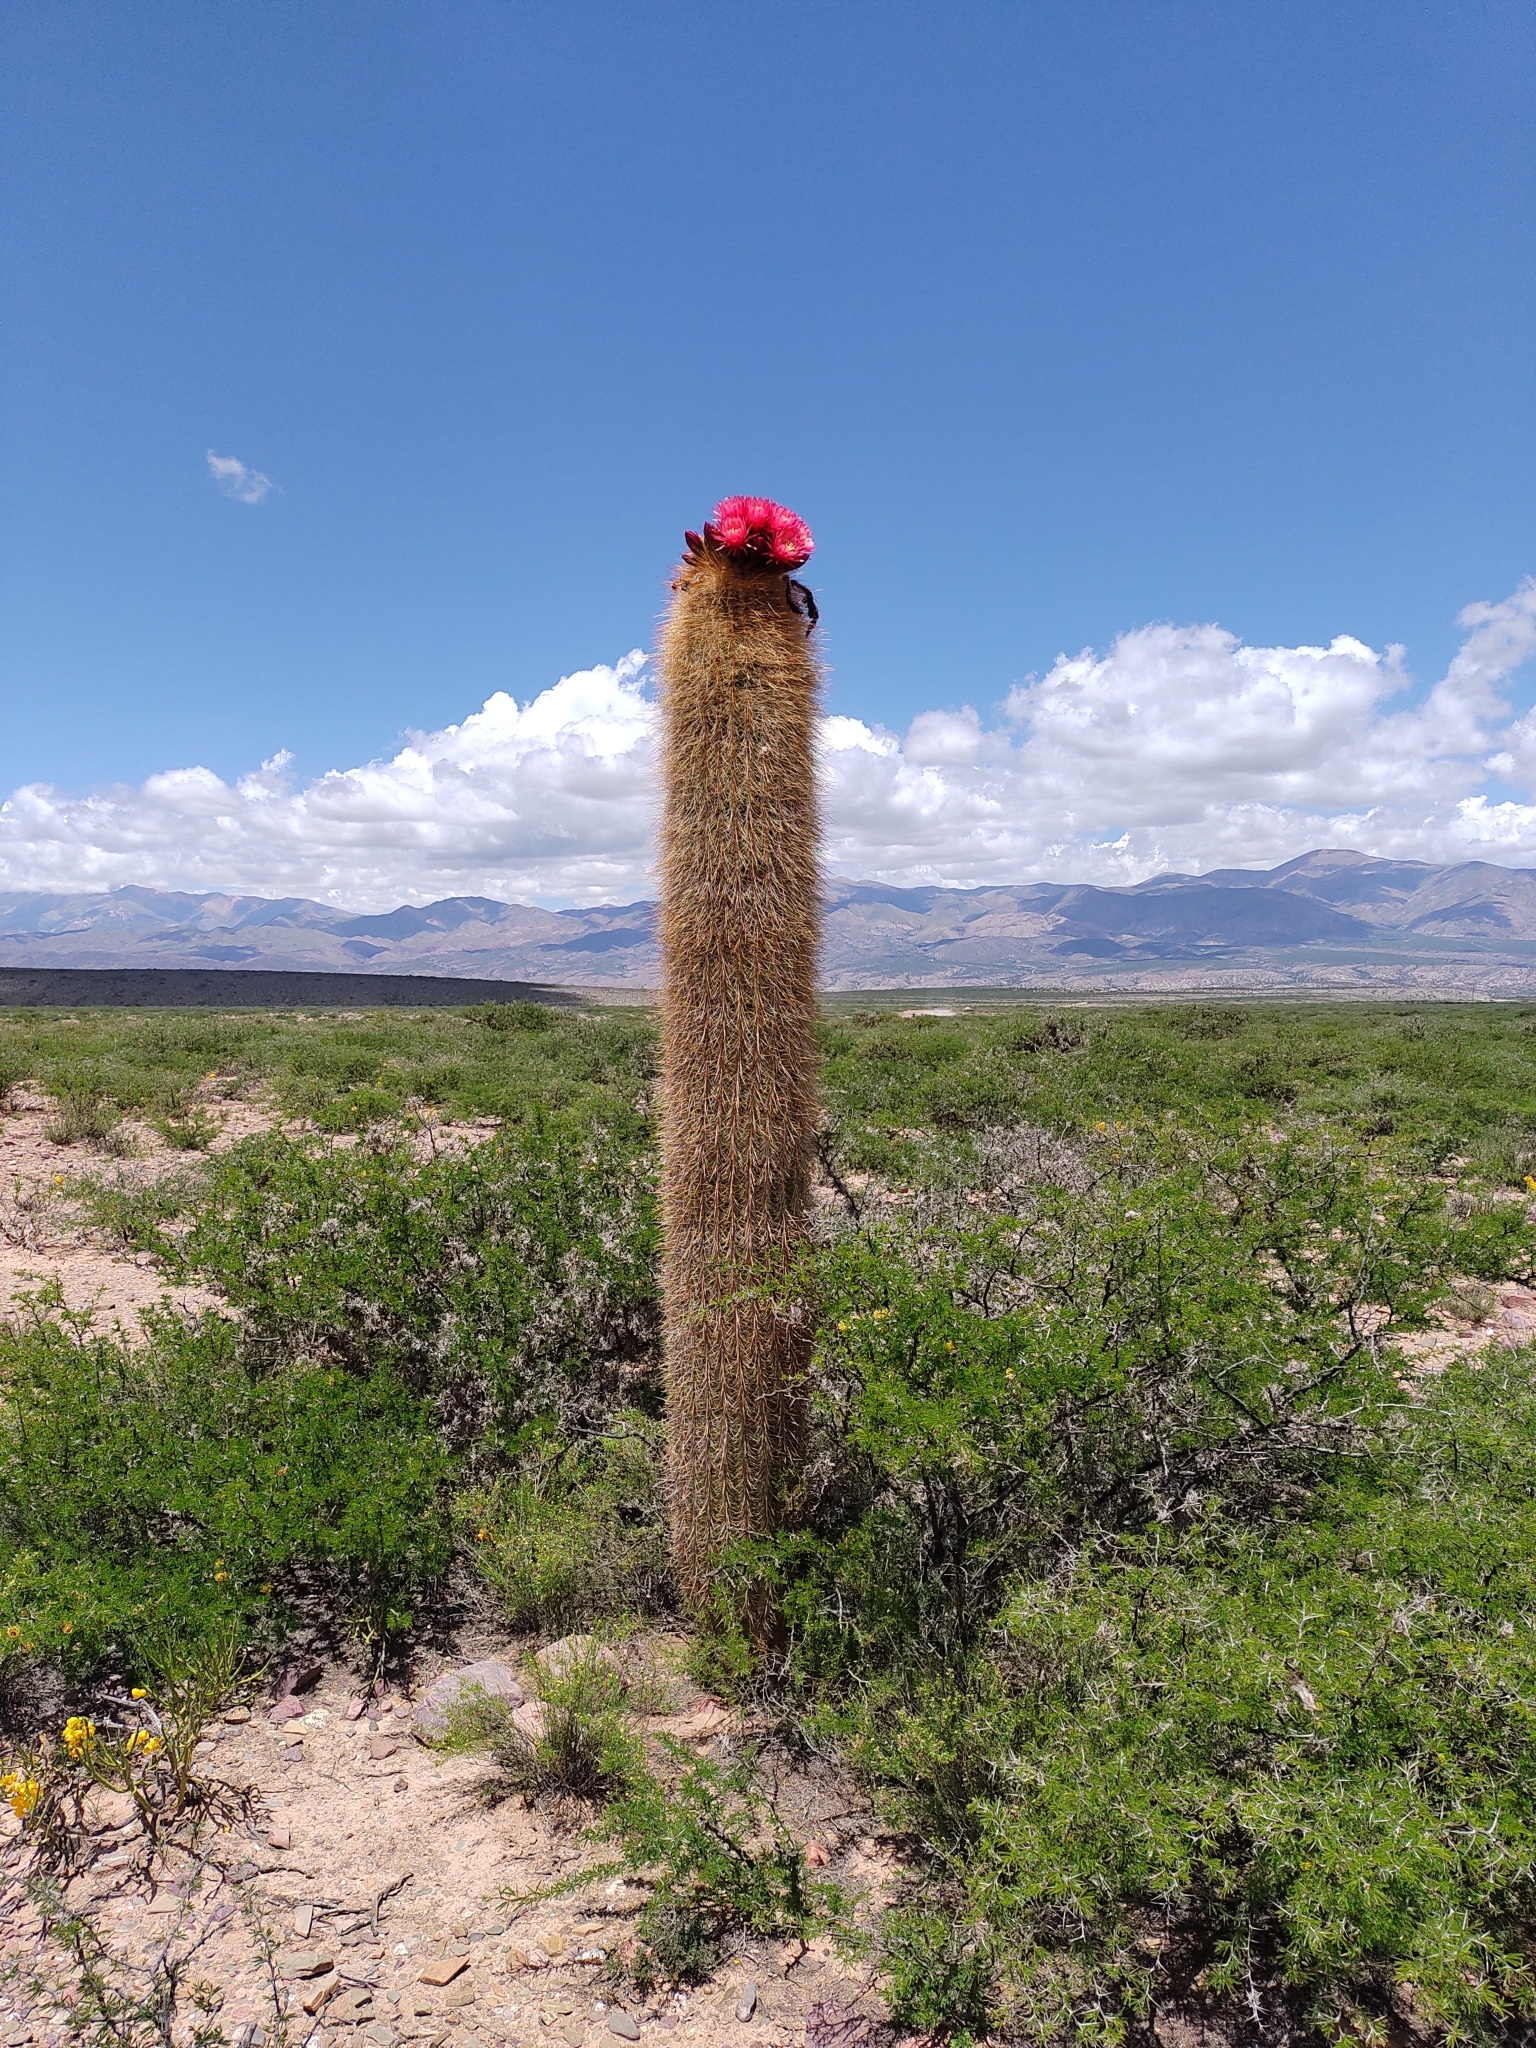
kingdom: Plantae
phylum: Tracheophyta
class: Magnoliopsida
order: Caryophyllales
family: Cactaceae
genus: Soehrensia
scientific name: Soehrensia tarijensis
